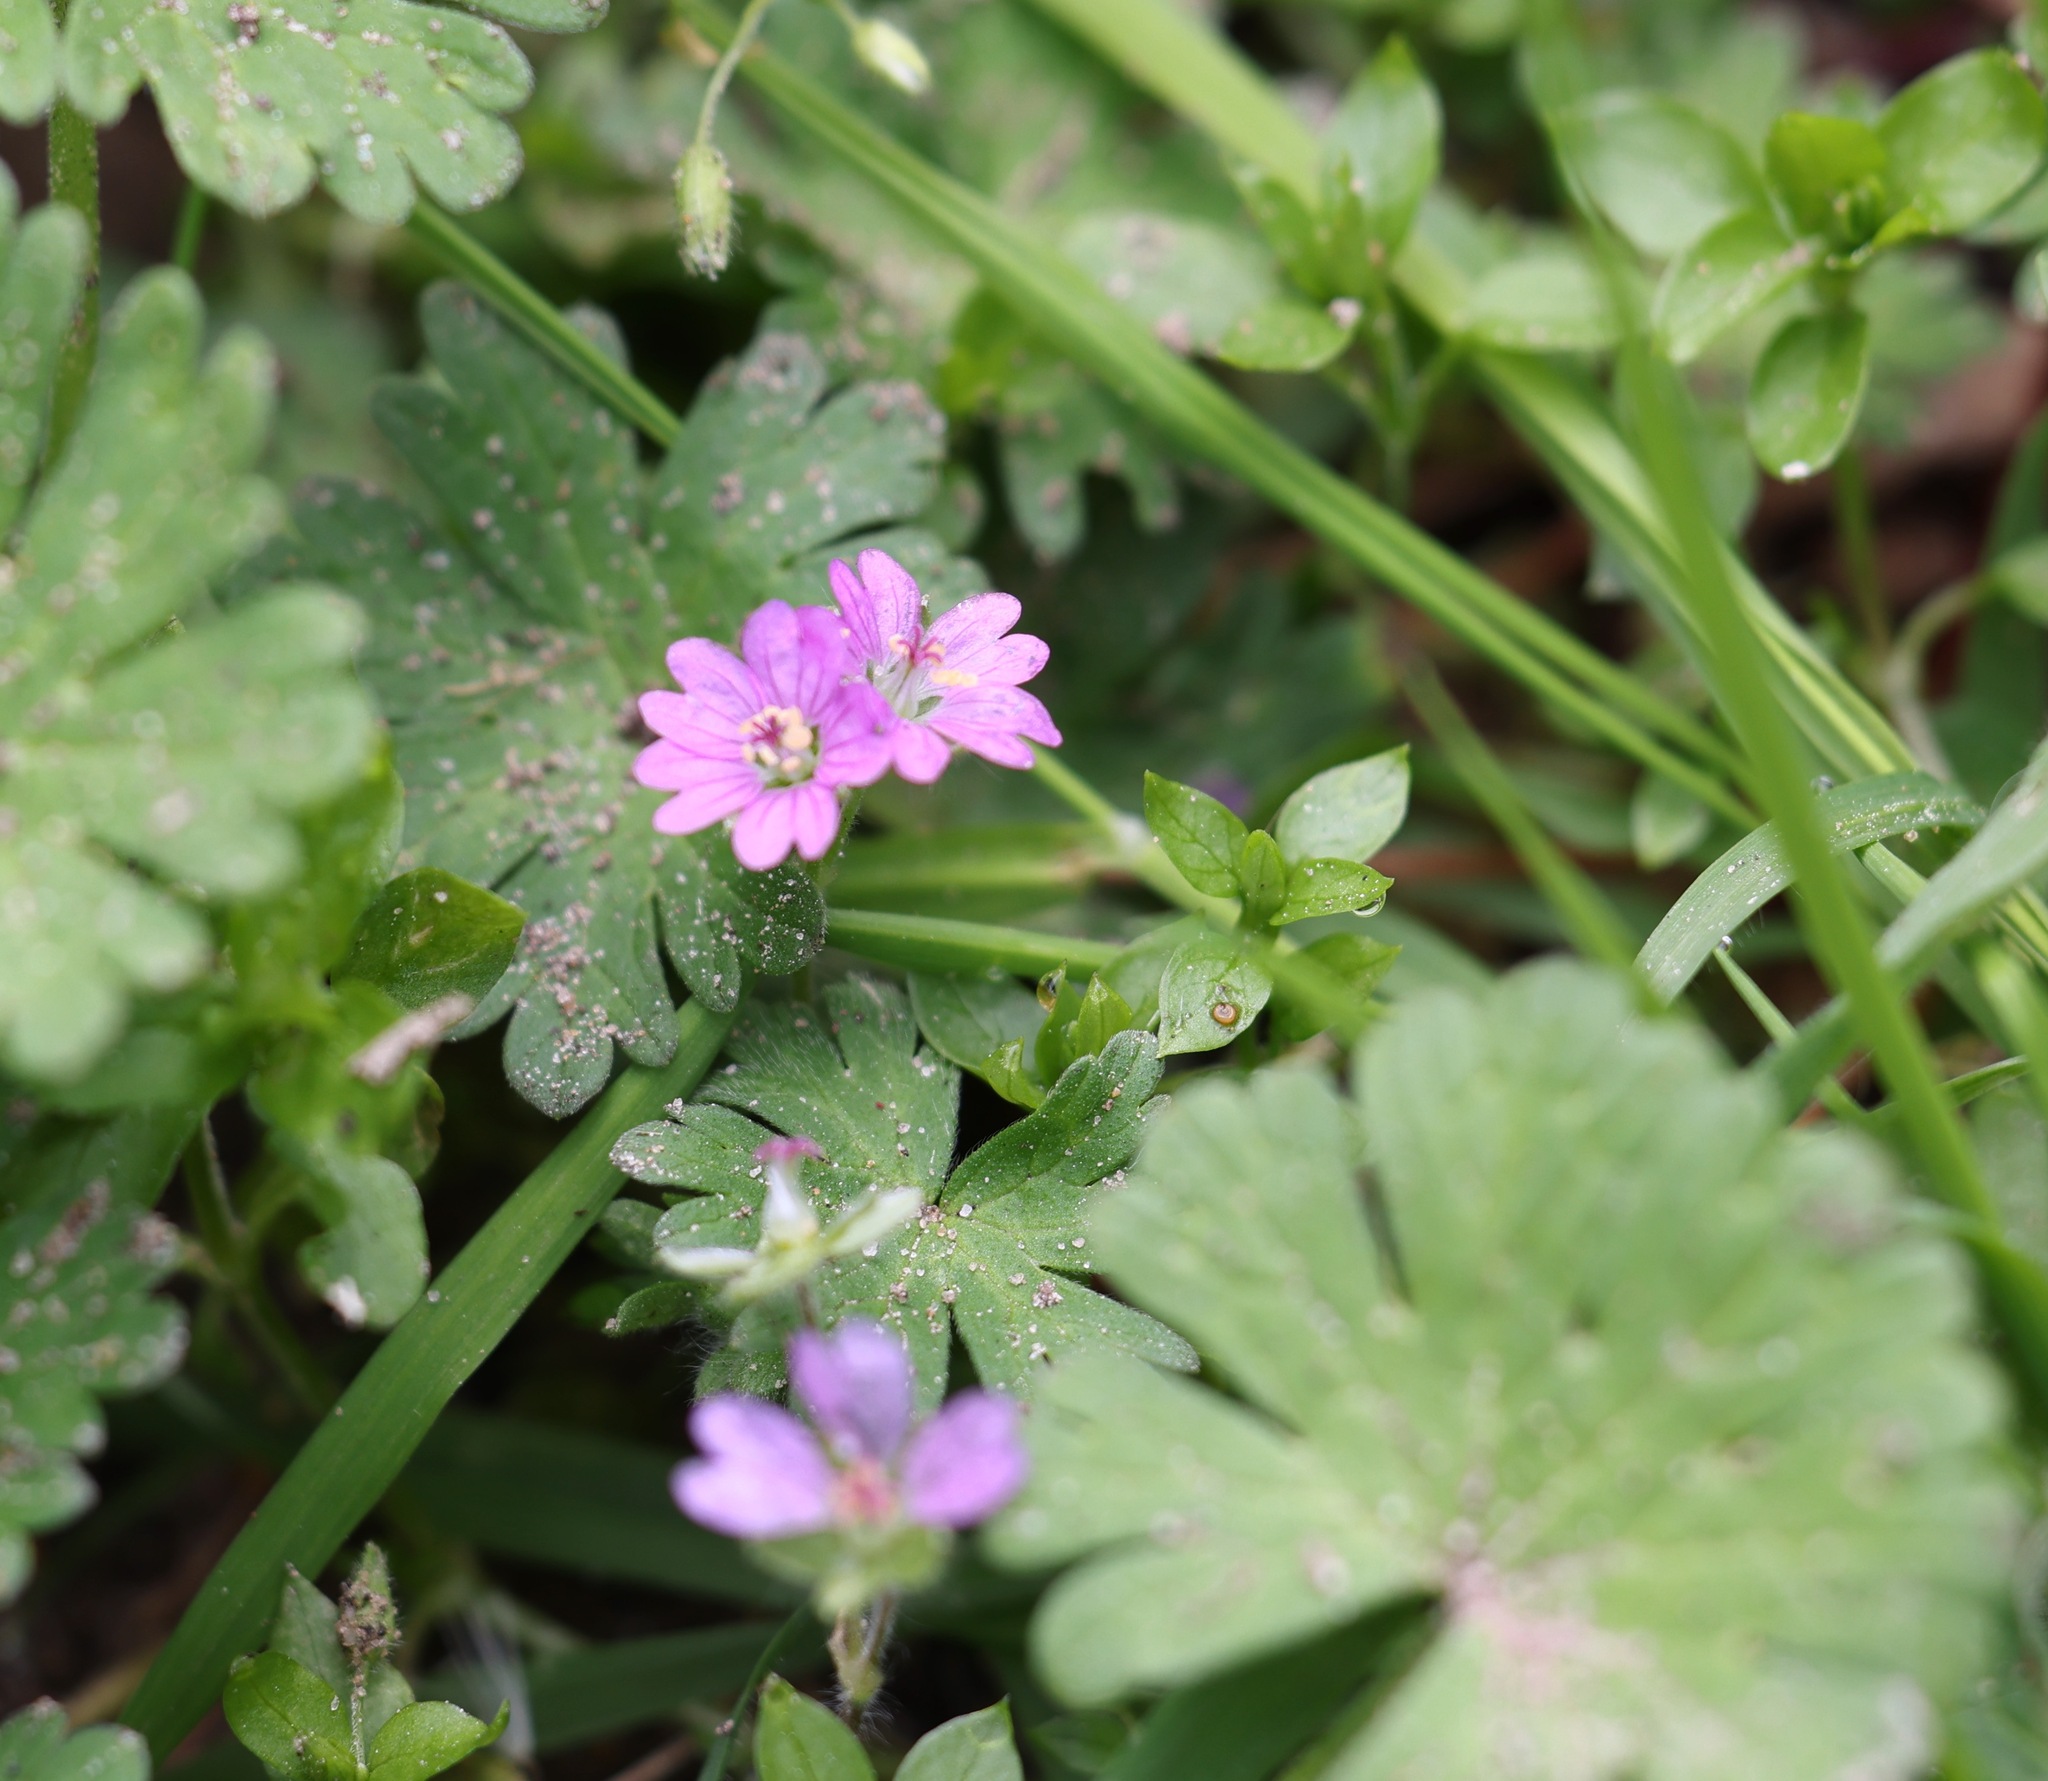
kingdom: Plantae
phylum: Tracheophyta
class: Magnoliopsida
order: Geraniales
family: Geraniaceae
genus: Geranium
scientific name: Geranium molle
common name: Dove's-foot crane's-bill
